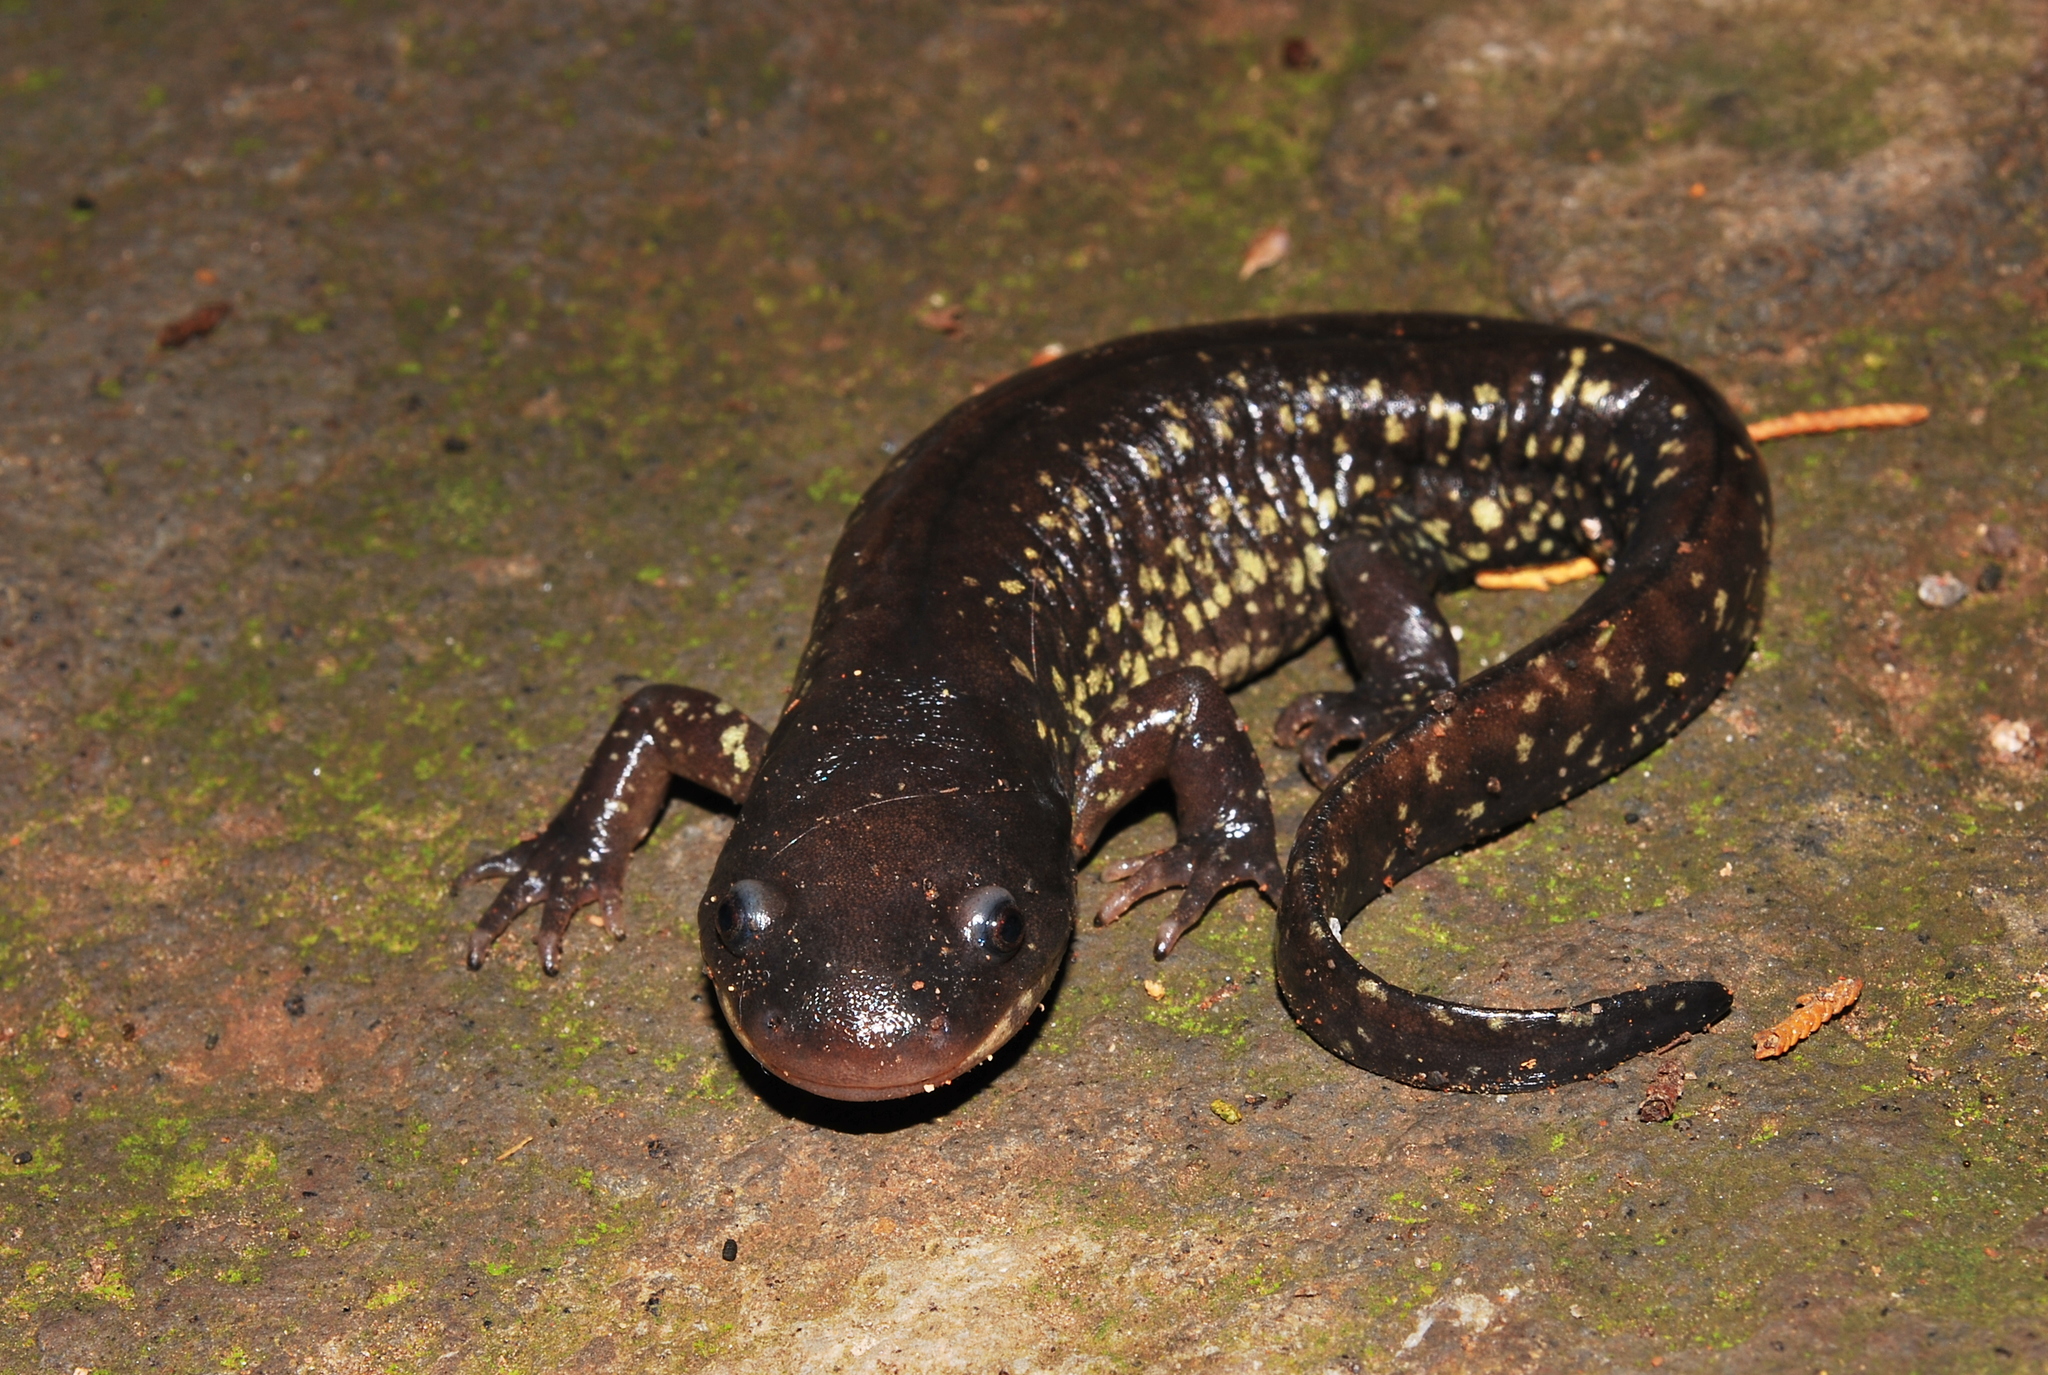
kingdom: Animalia
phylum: Chordata
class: Amphibia
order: Caudata
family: Ambystomatidae
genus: Ambystoma
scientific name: Ambystoma flavipiperatum
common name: Yellow-peppered salamander
